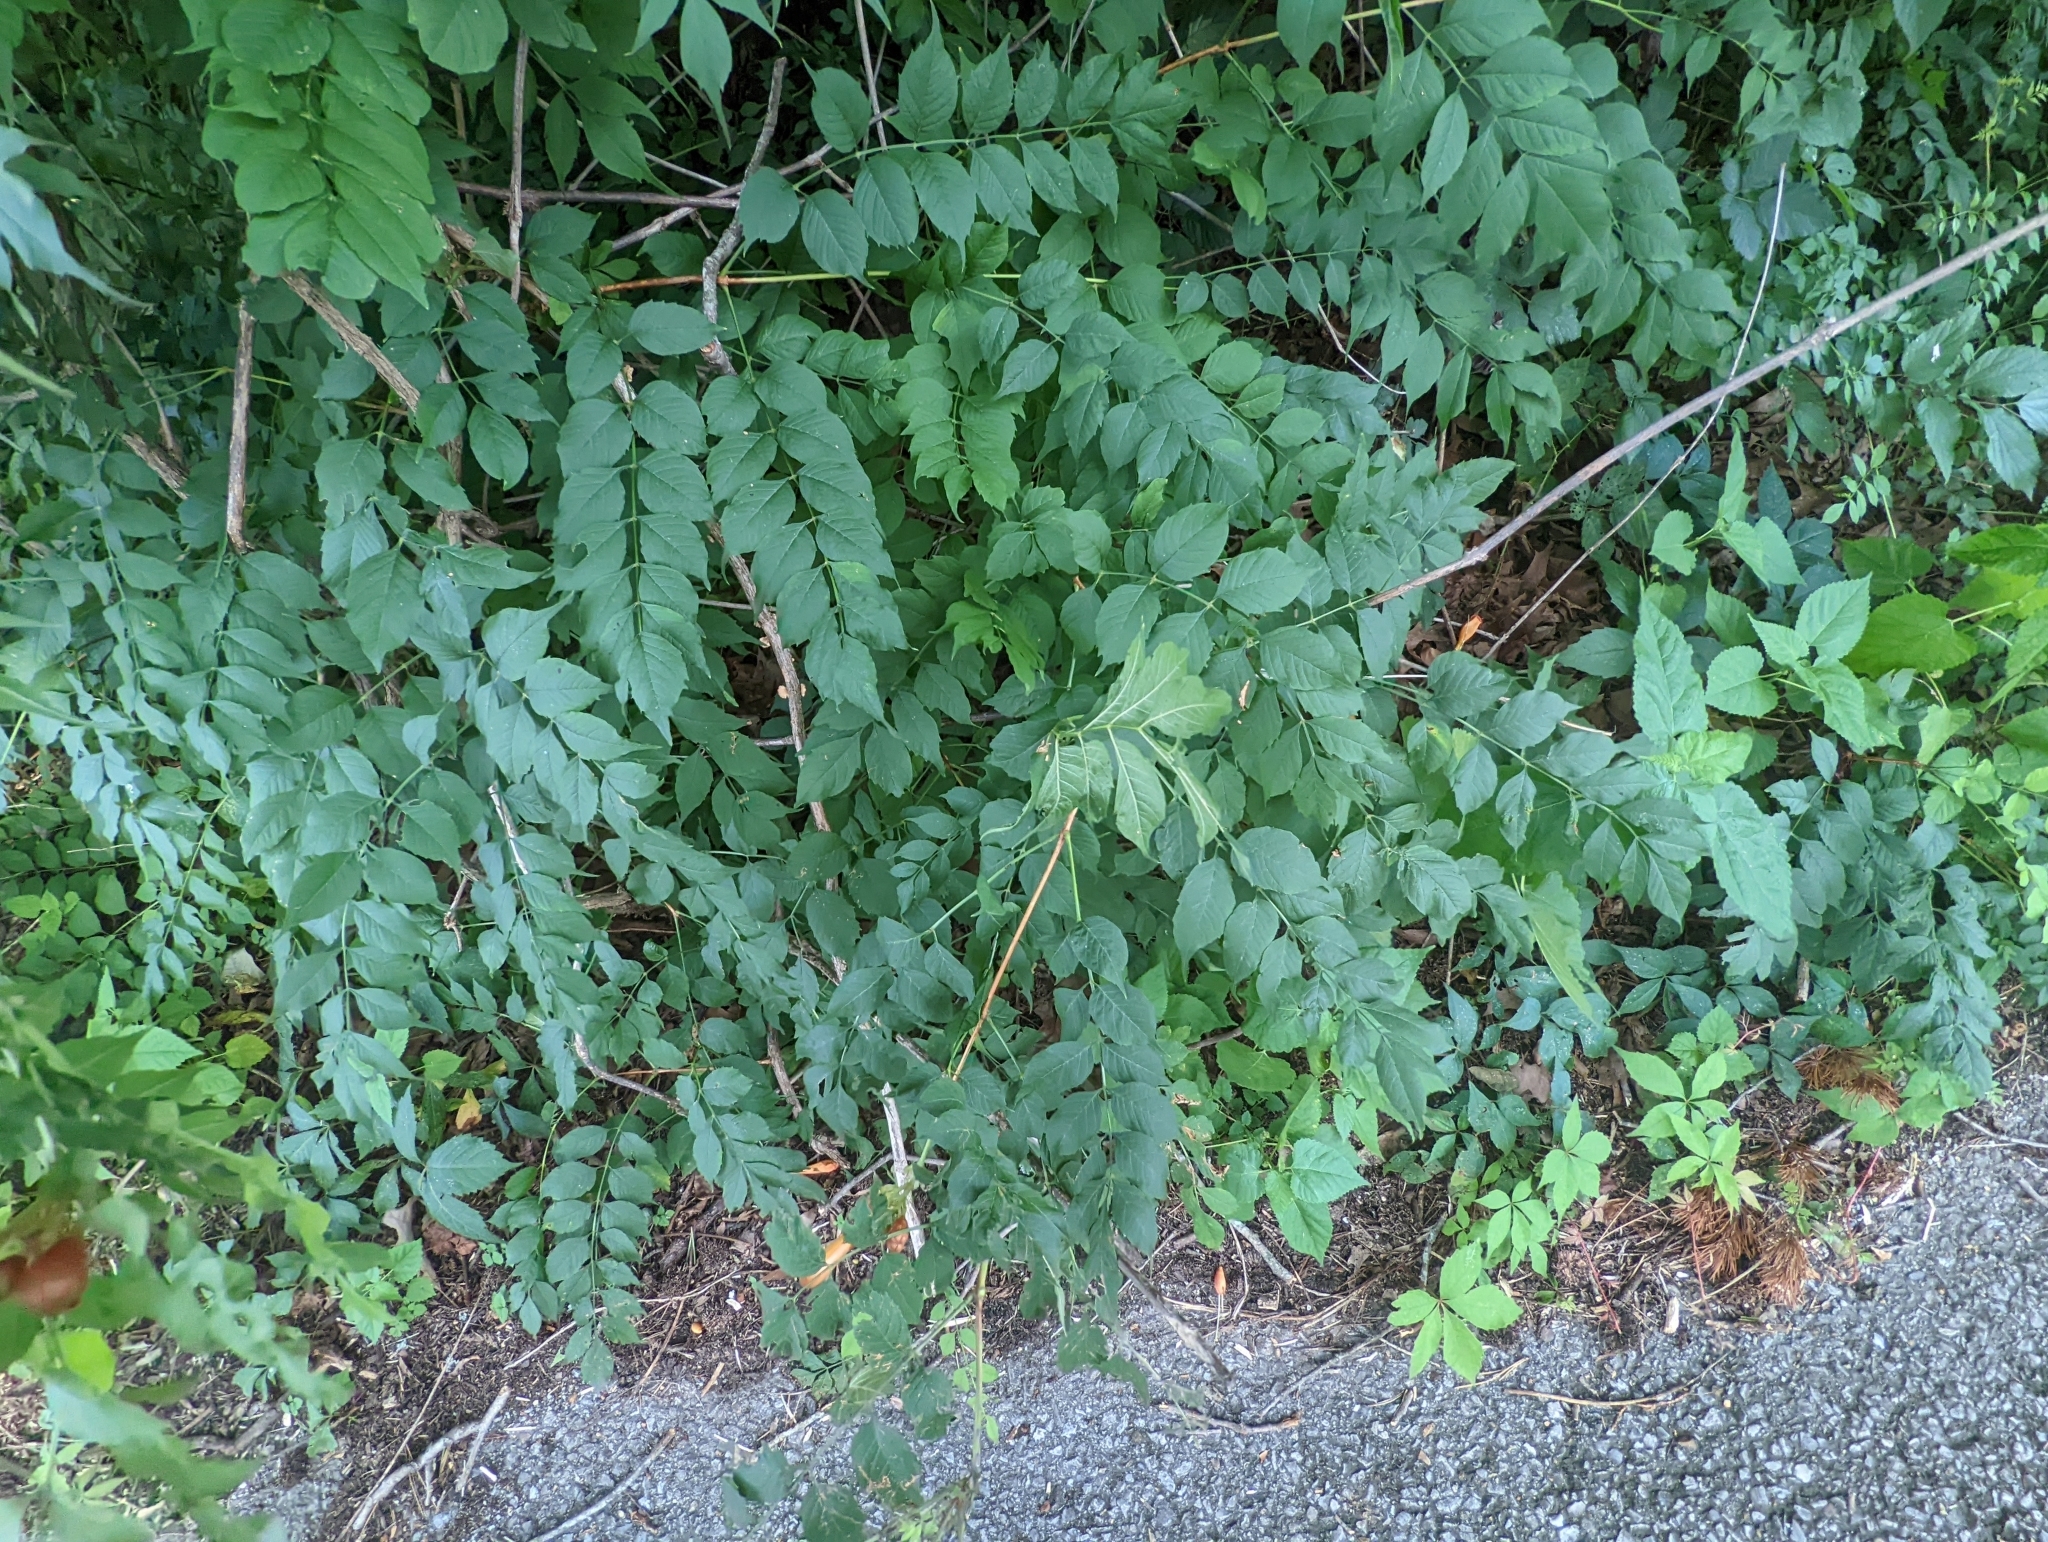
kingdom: Plantae
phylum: Tracheophyta
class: Magnoliopsida
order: Lamiales
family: Bignoniaceae
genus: Campsis
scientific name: Campsis radicans
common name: Trumpet-creeper
